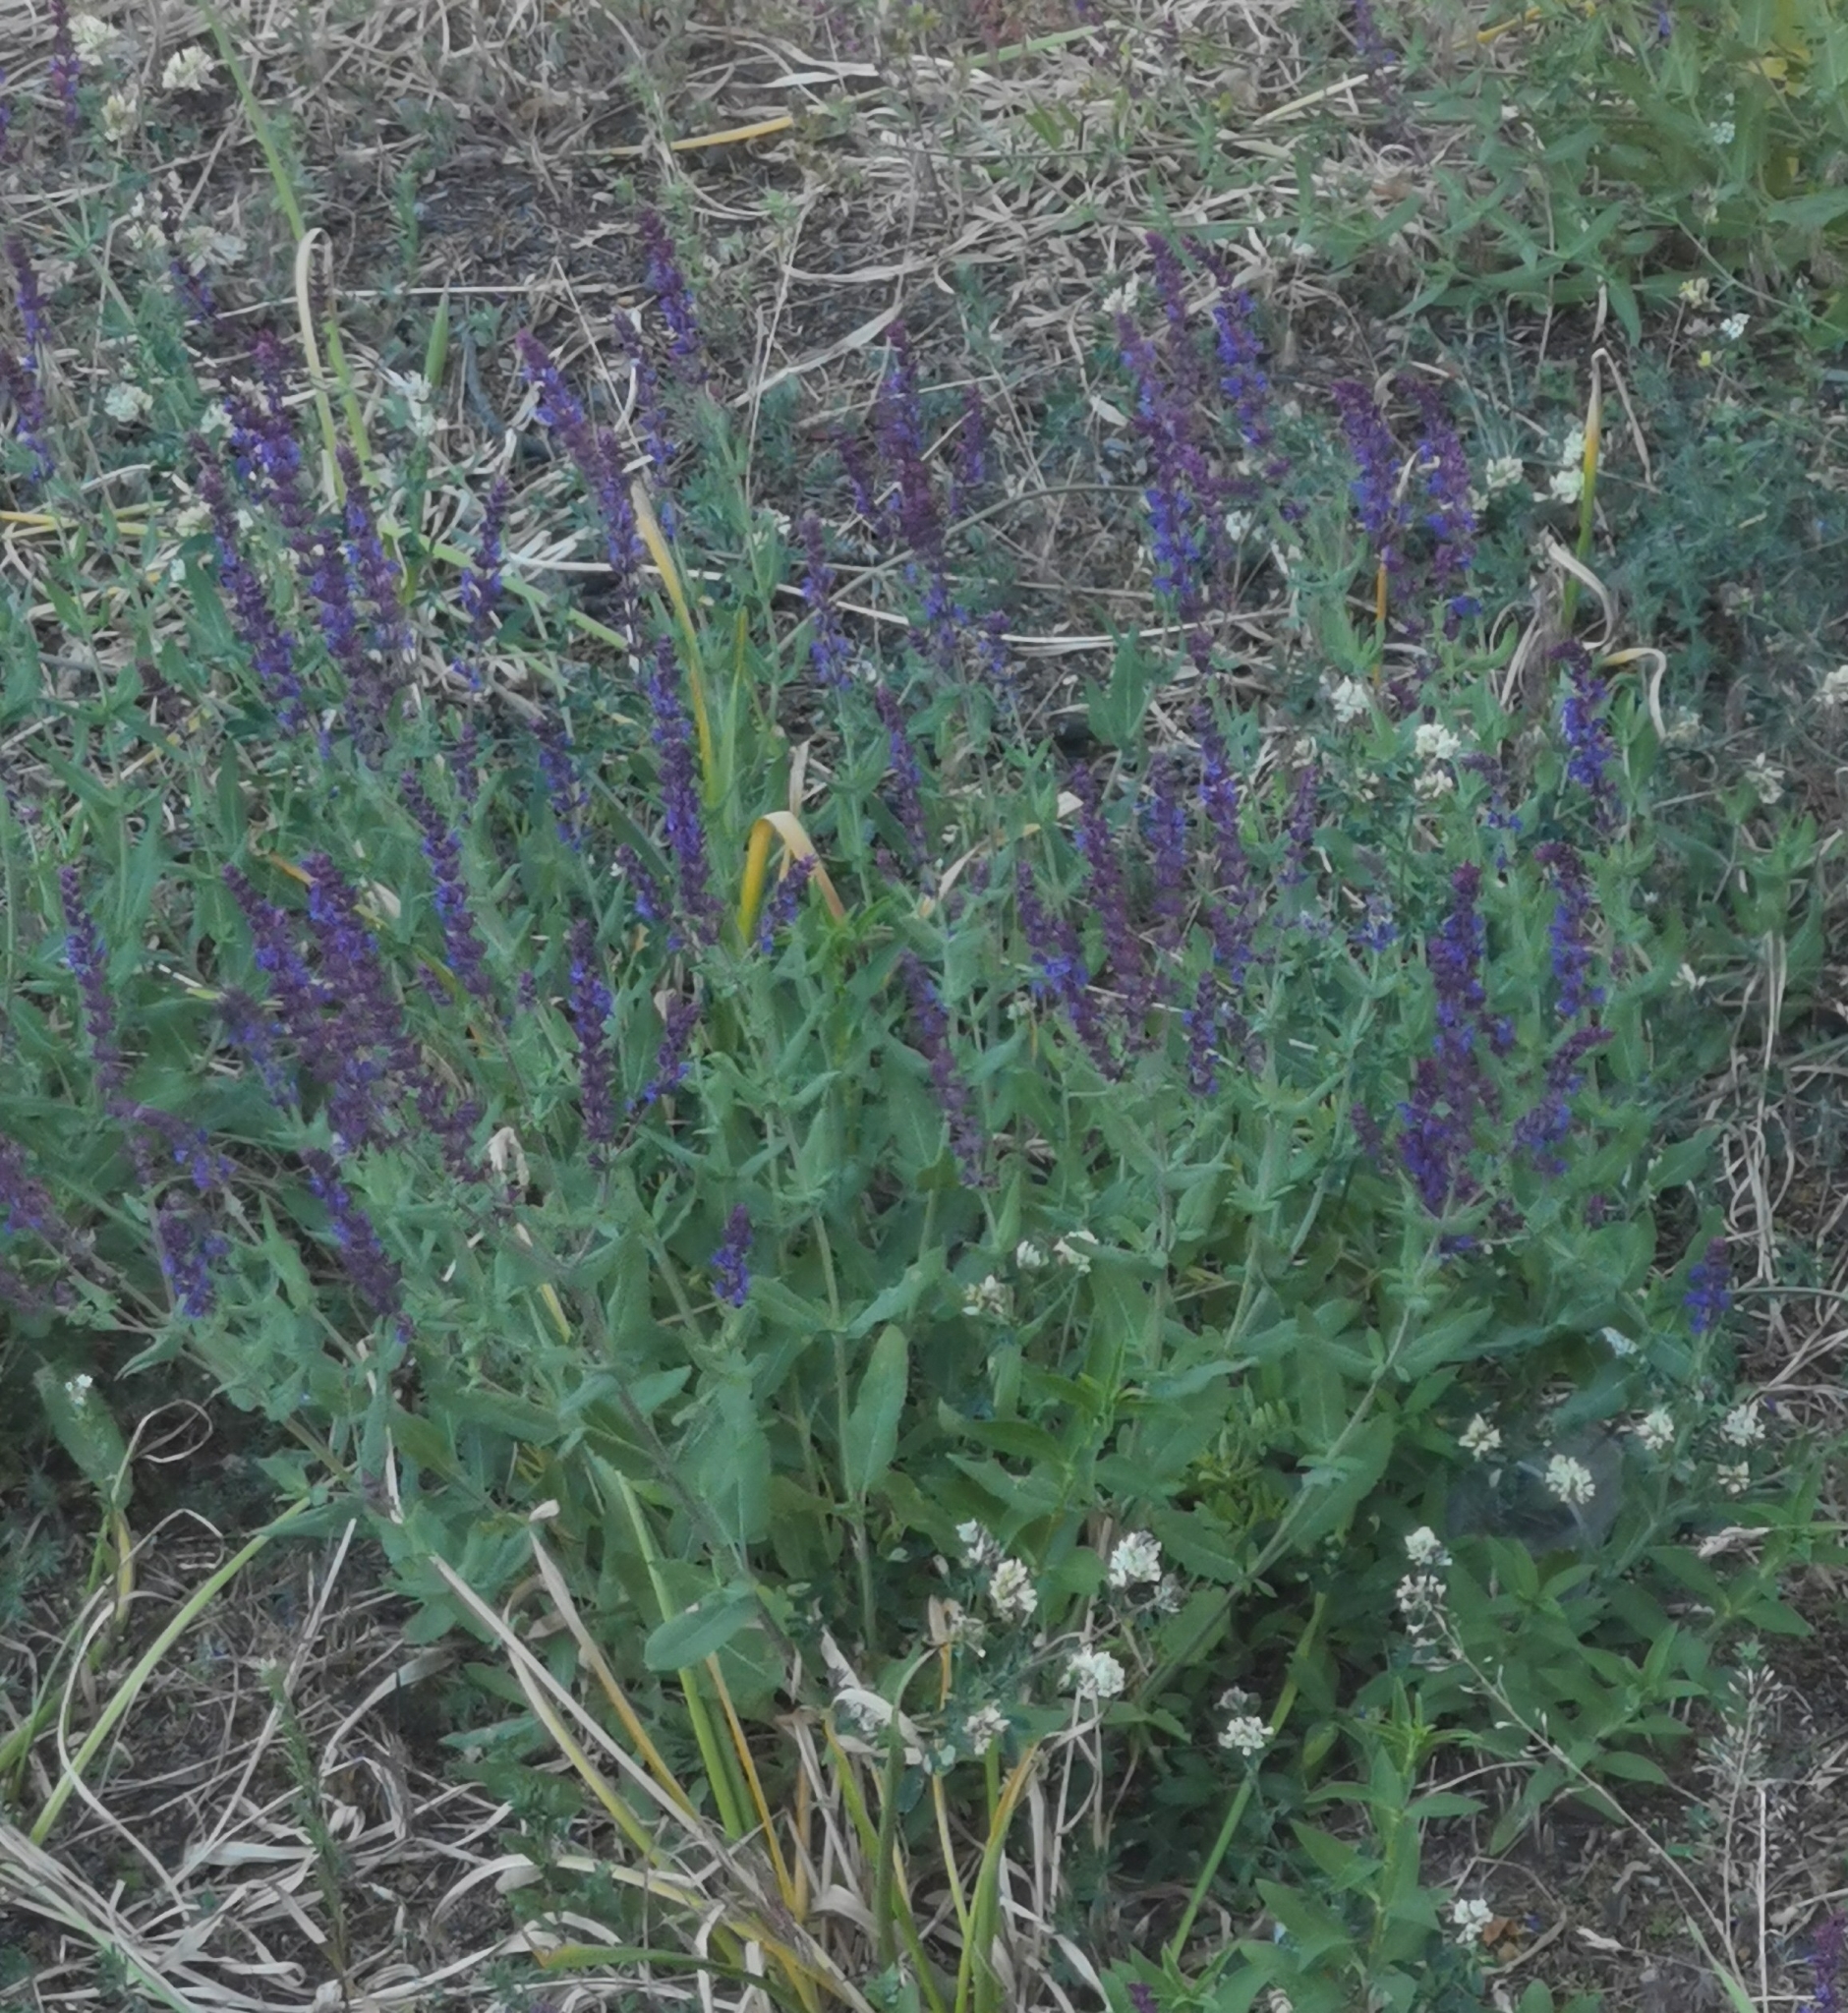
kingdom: Plantae
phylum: Tracheophyta
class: Magnoliopsida
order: Lamiales
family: Lamiaceae
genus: Salvia
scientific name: Salvia nemorosa
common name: Balkan clary
